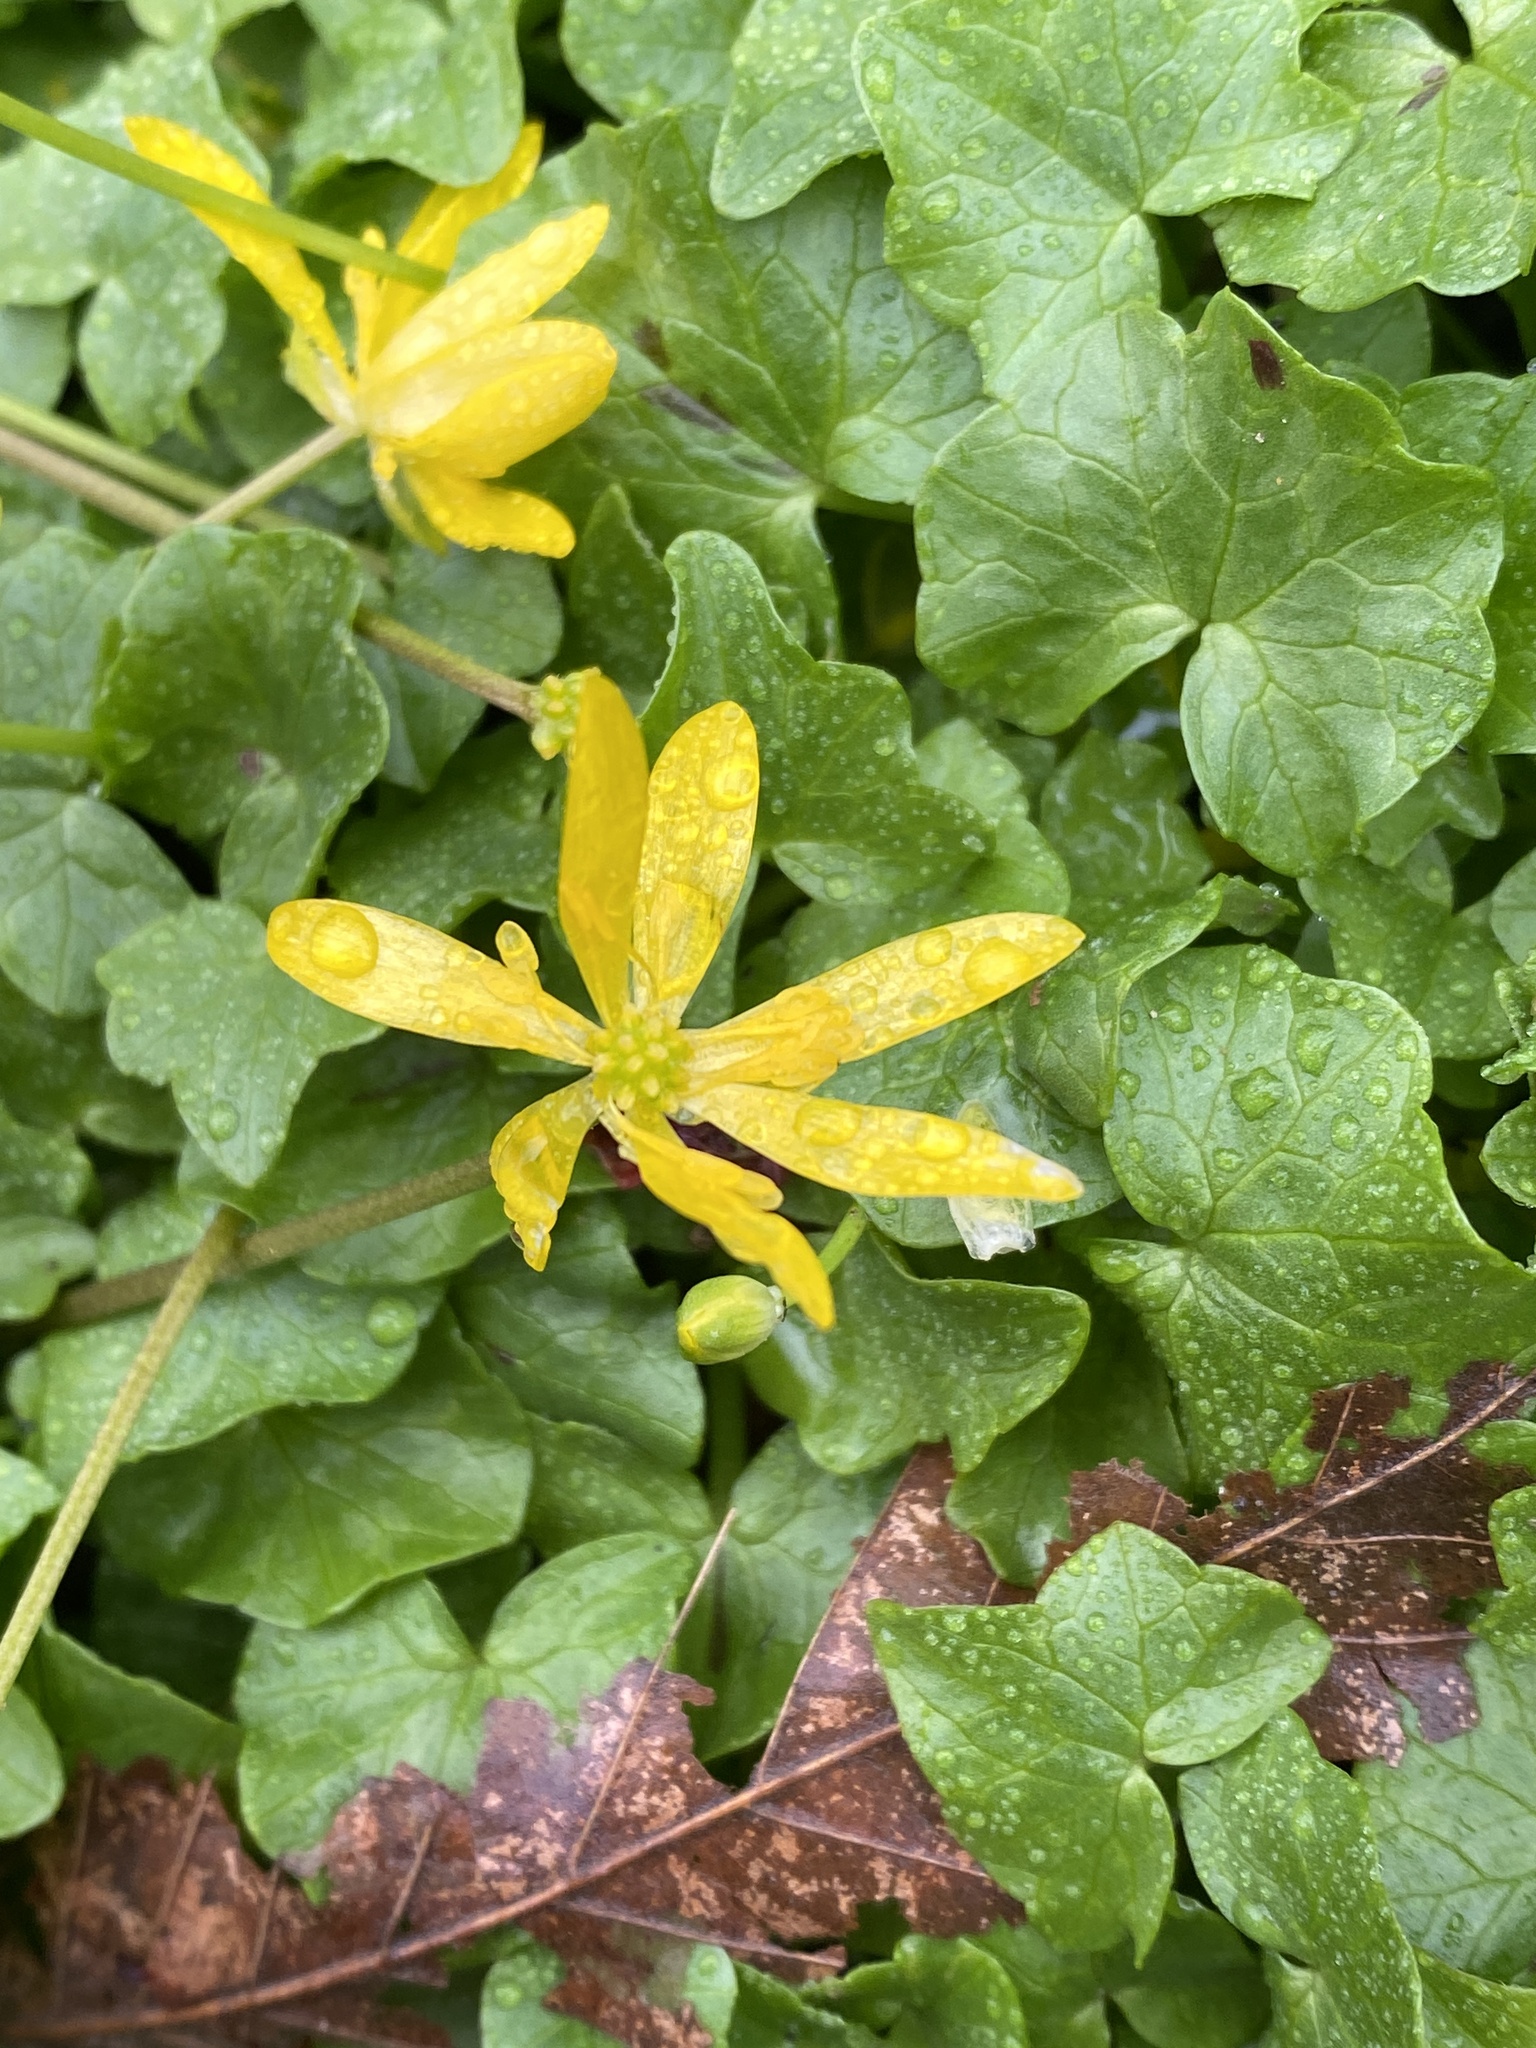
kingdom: Plantae
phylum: Tracheophyta
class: Magnoliopsida
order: Ranunculales
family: Ranunculaceae
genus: Ficaria
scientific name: Ficaria verna
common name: Lesser celandine
